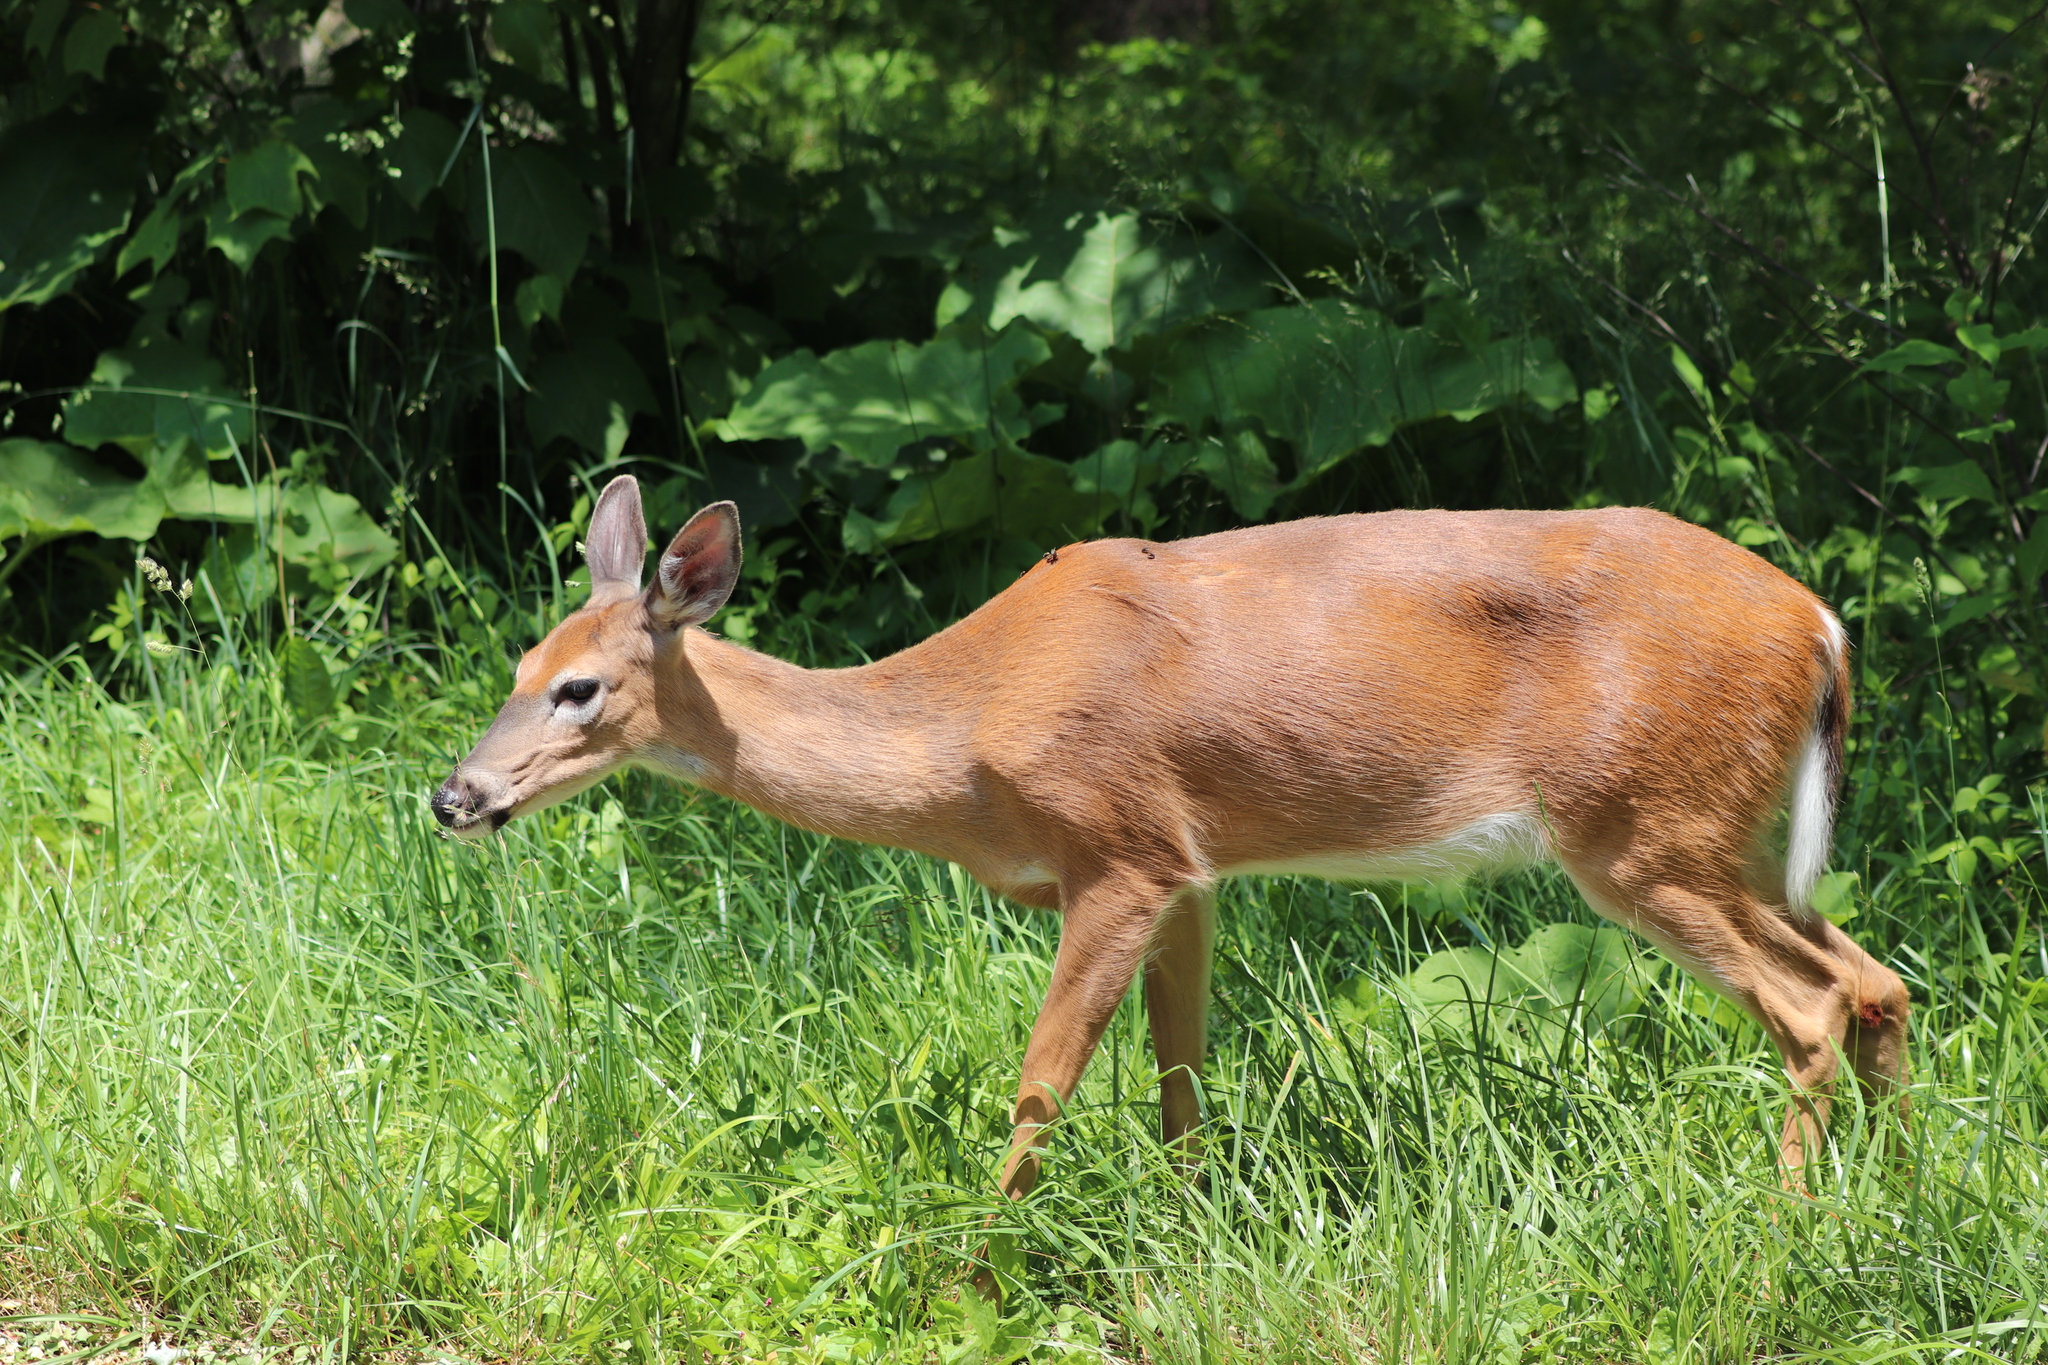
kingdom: Animalia
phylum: Chordata
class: Mammalia
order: Artiodactyla
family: Cervidae
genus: Odocoileus
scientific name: Odocoileus virginianus
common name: White-tailed deer
